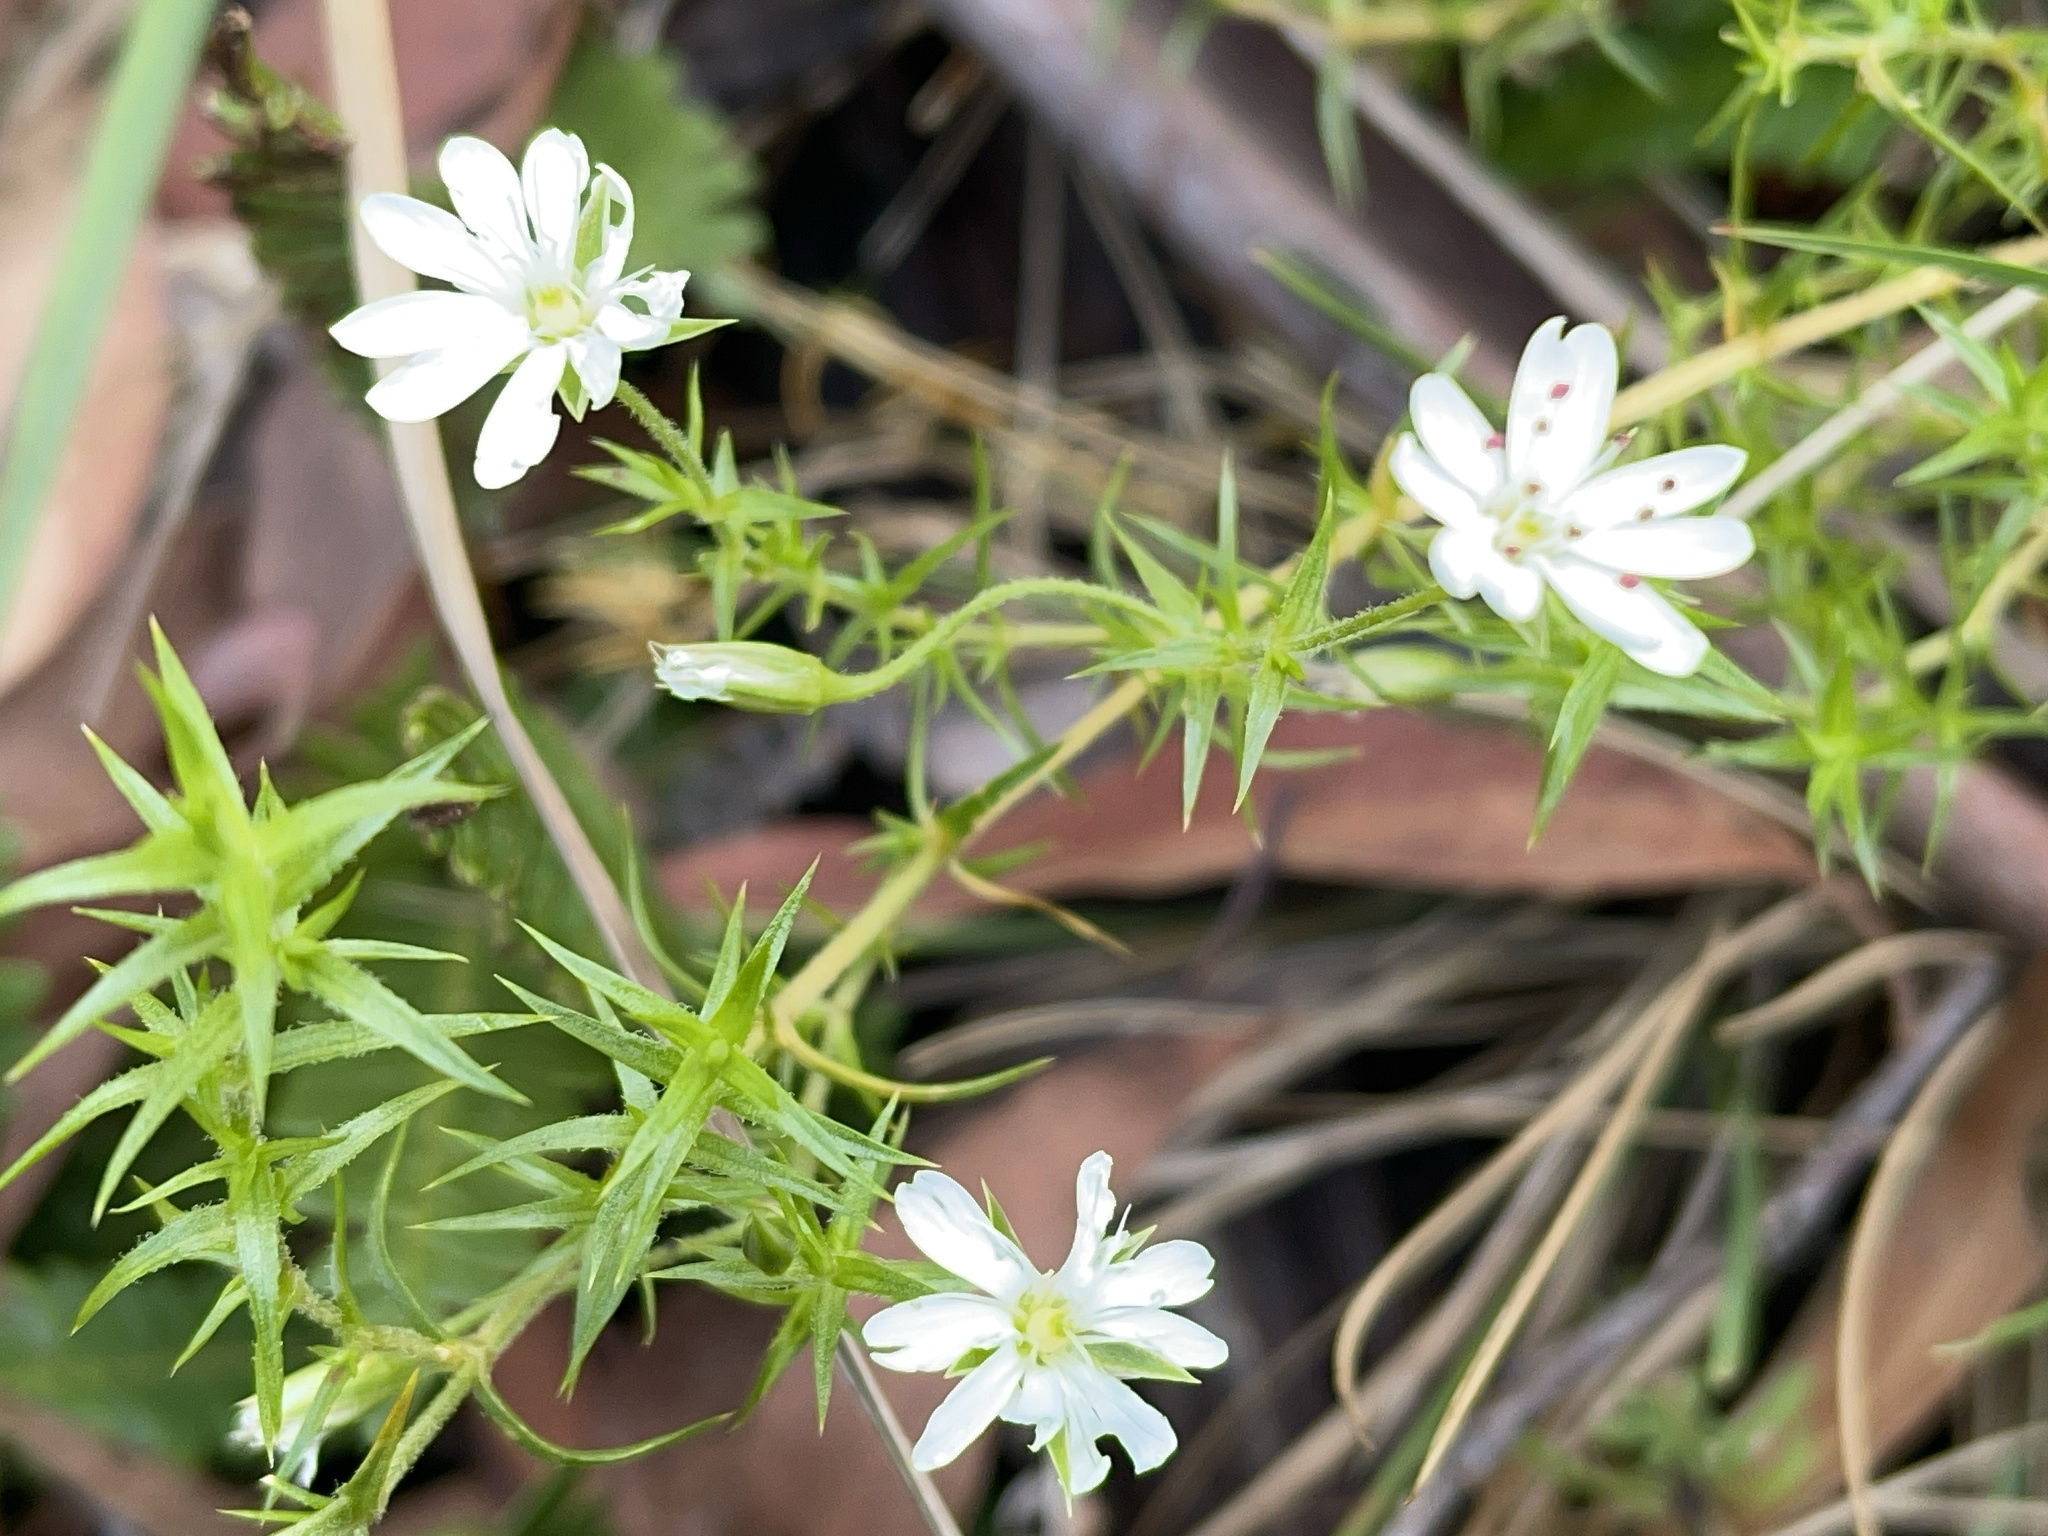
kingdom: Plantae
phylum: Tracheophyta
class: Magnoliopsida
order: Caryophyllales
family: Caryophyllaceae
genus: Stellaria
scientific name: Stellaria pungens
